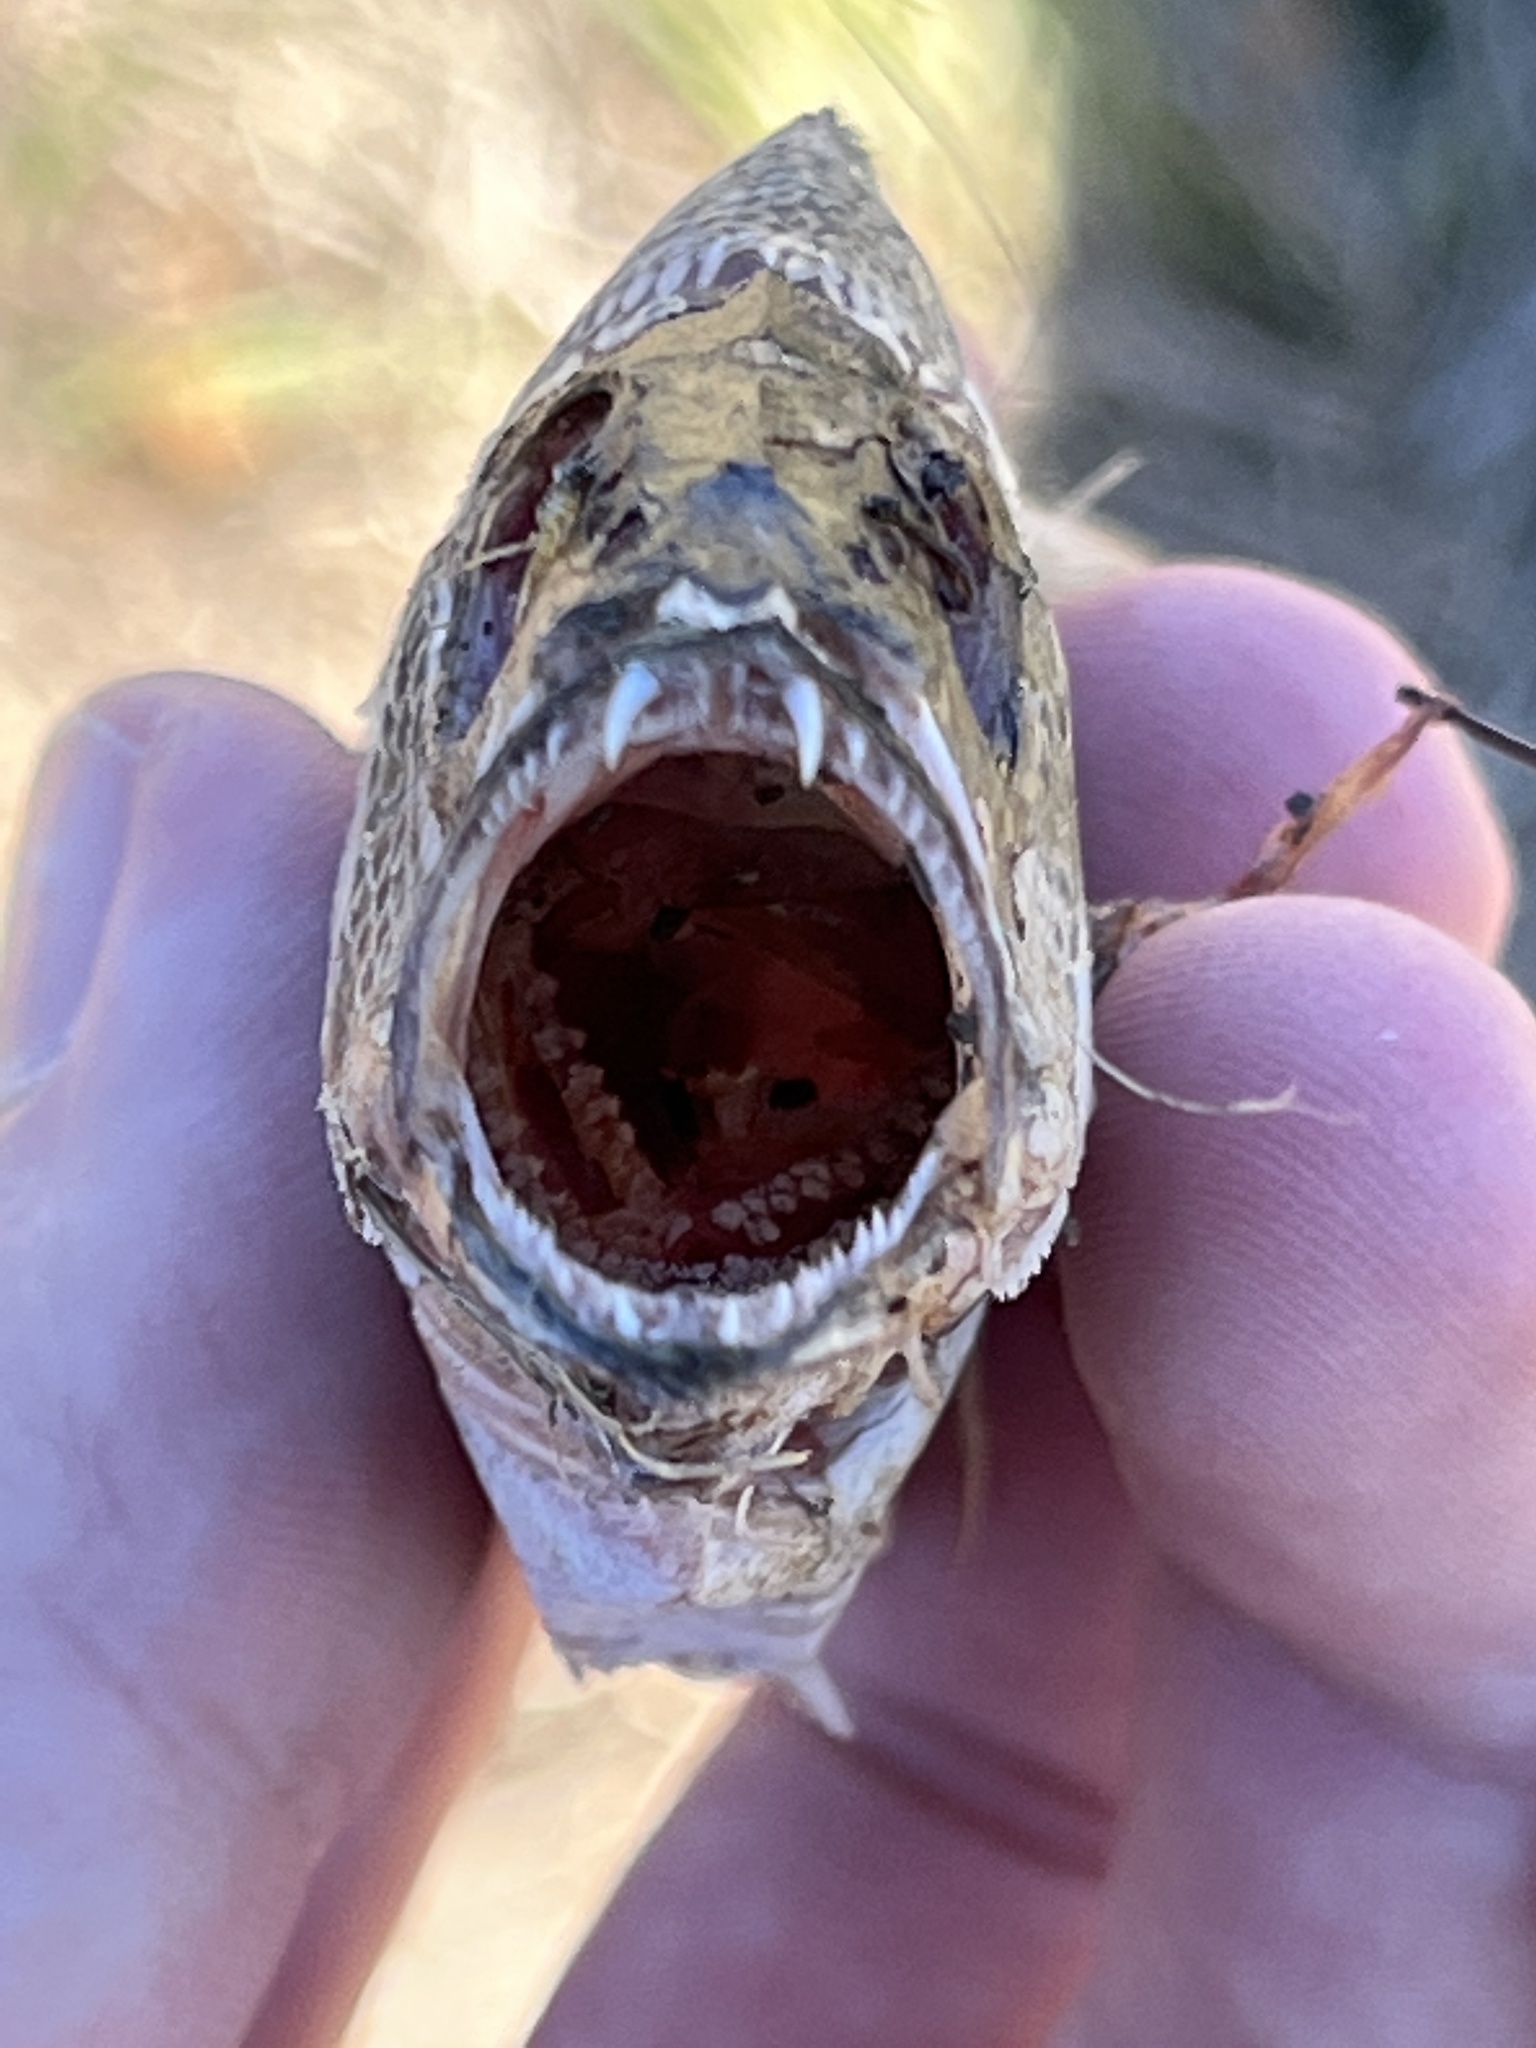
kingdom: Animalia
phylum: Chordata
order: Perciformes
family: Lutjanidae
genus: Lutjanus
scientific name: Lutjanus cyanopterus
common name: Cubera snapper
